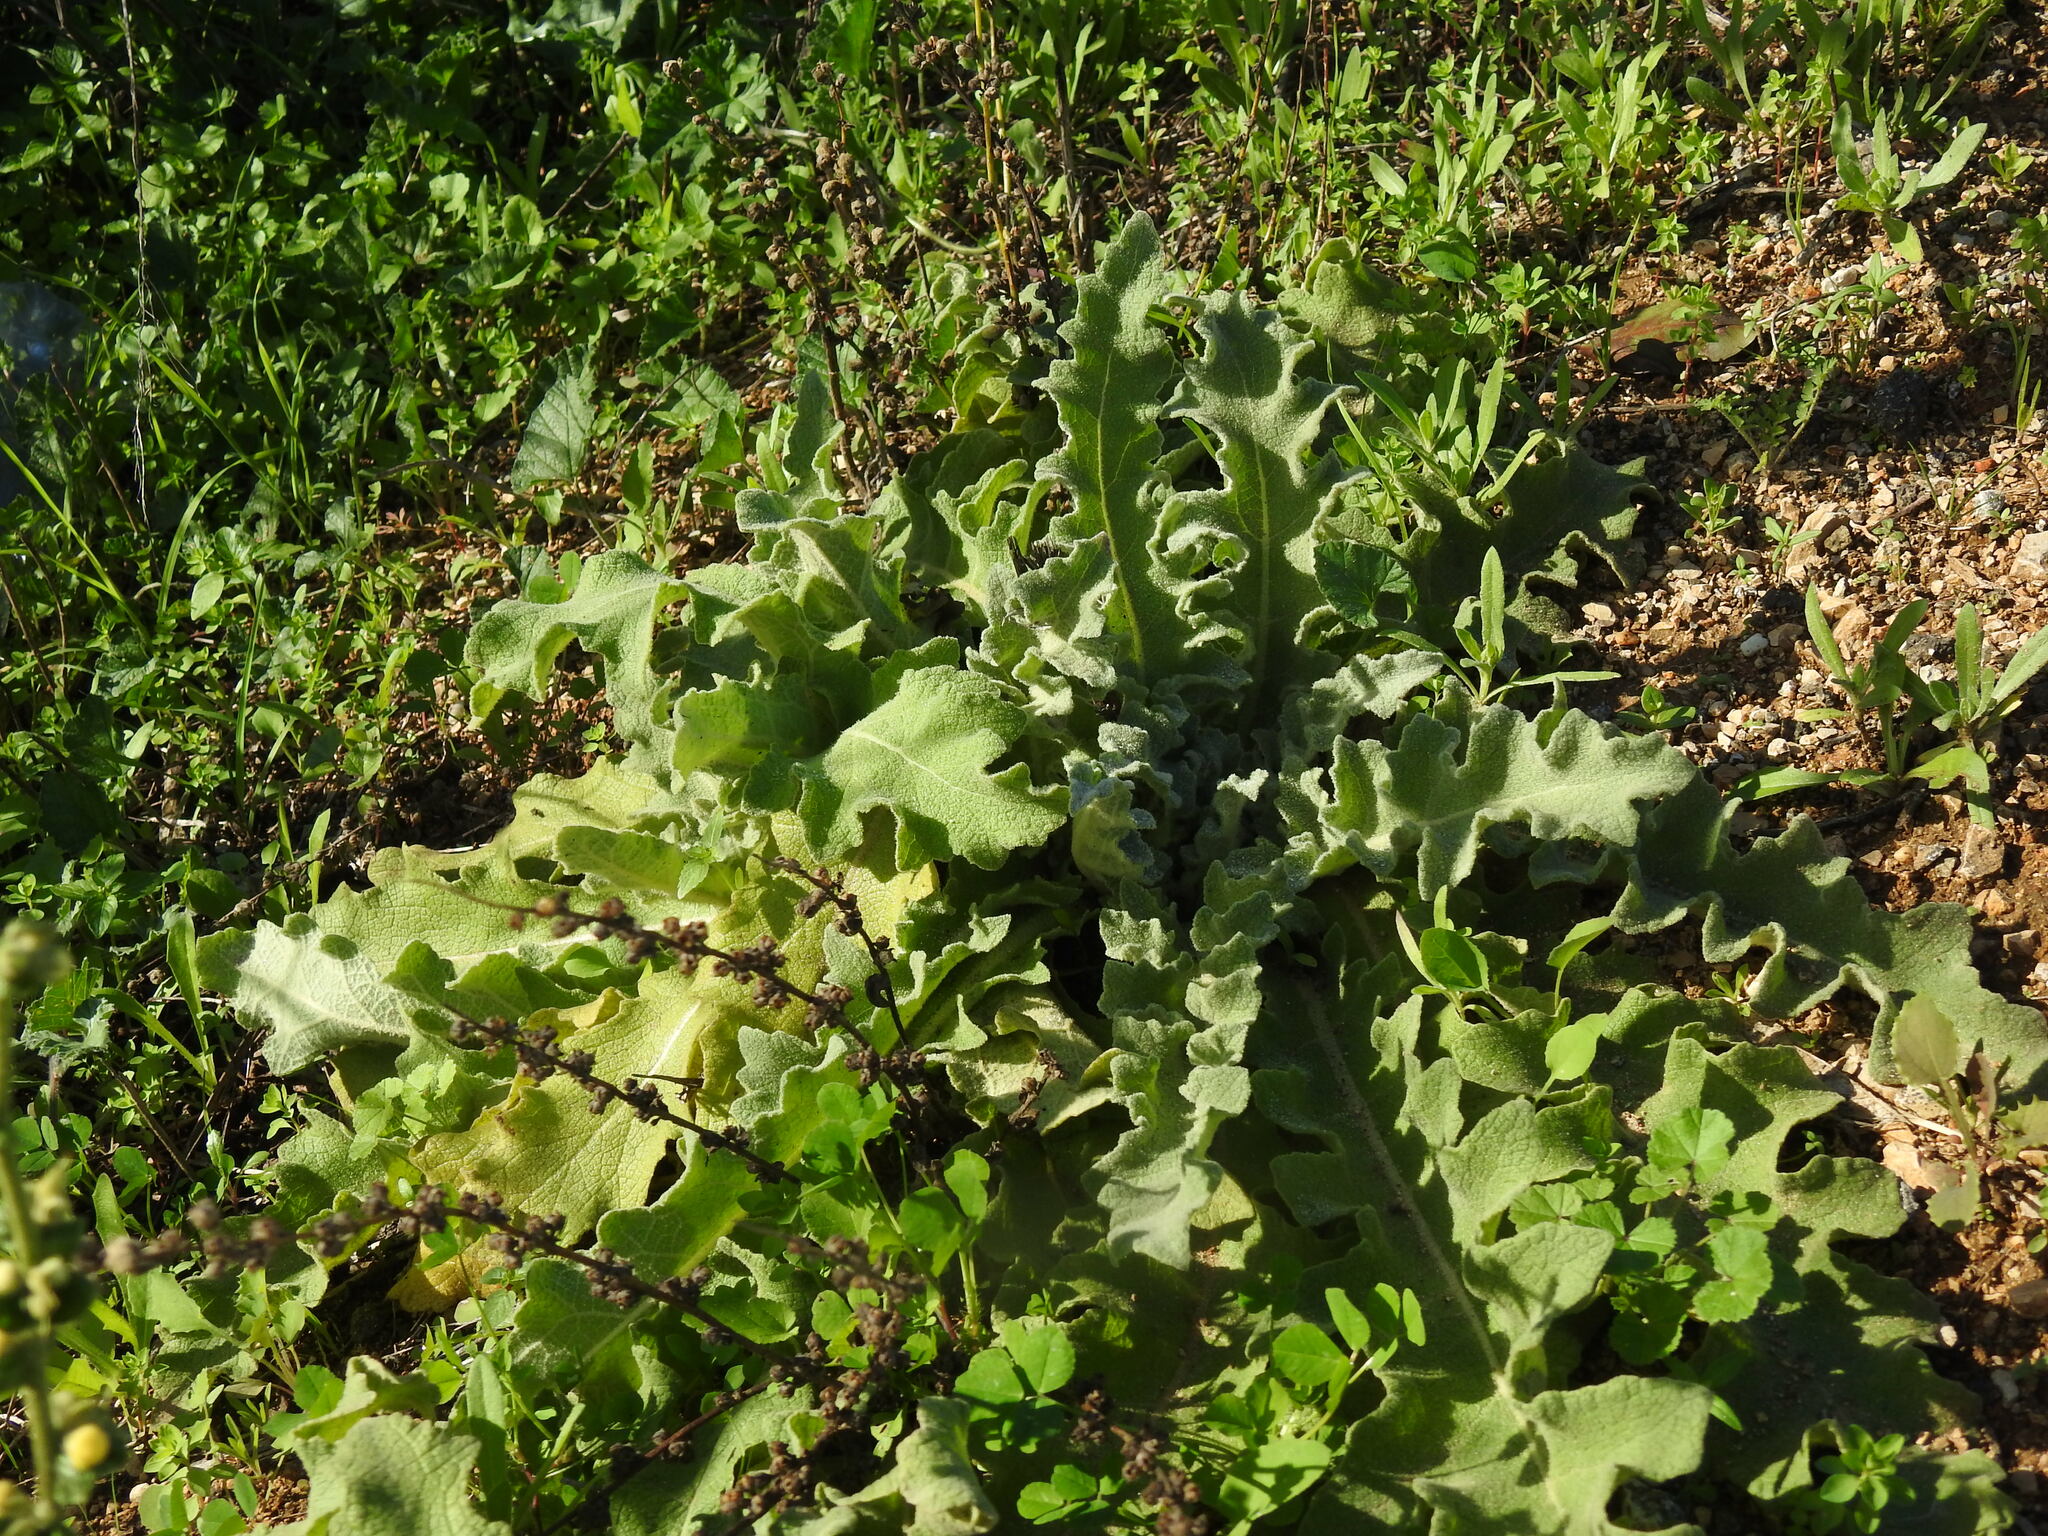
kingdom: Plantae
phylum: Tracheophyta
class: Magnoliopsida
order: Lamiales
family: Scrophulariaceae
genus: Verbascum
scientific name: Verbascum sinuatum
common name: Wavyleaf mullein
